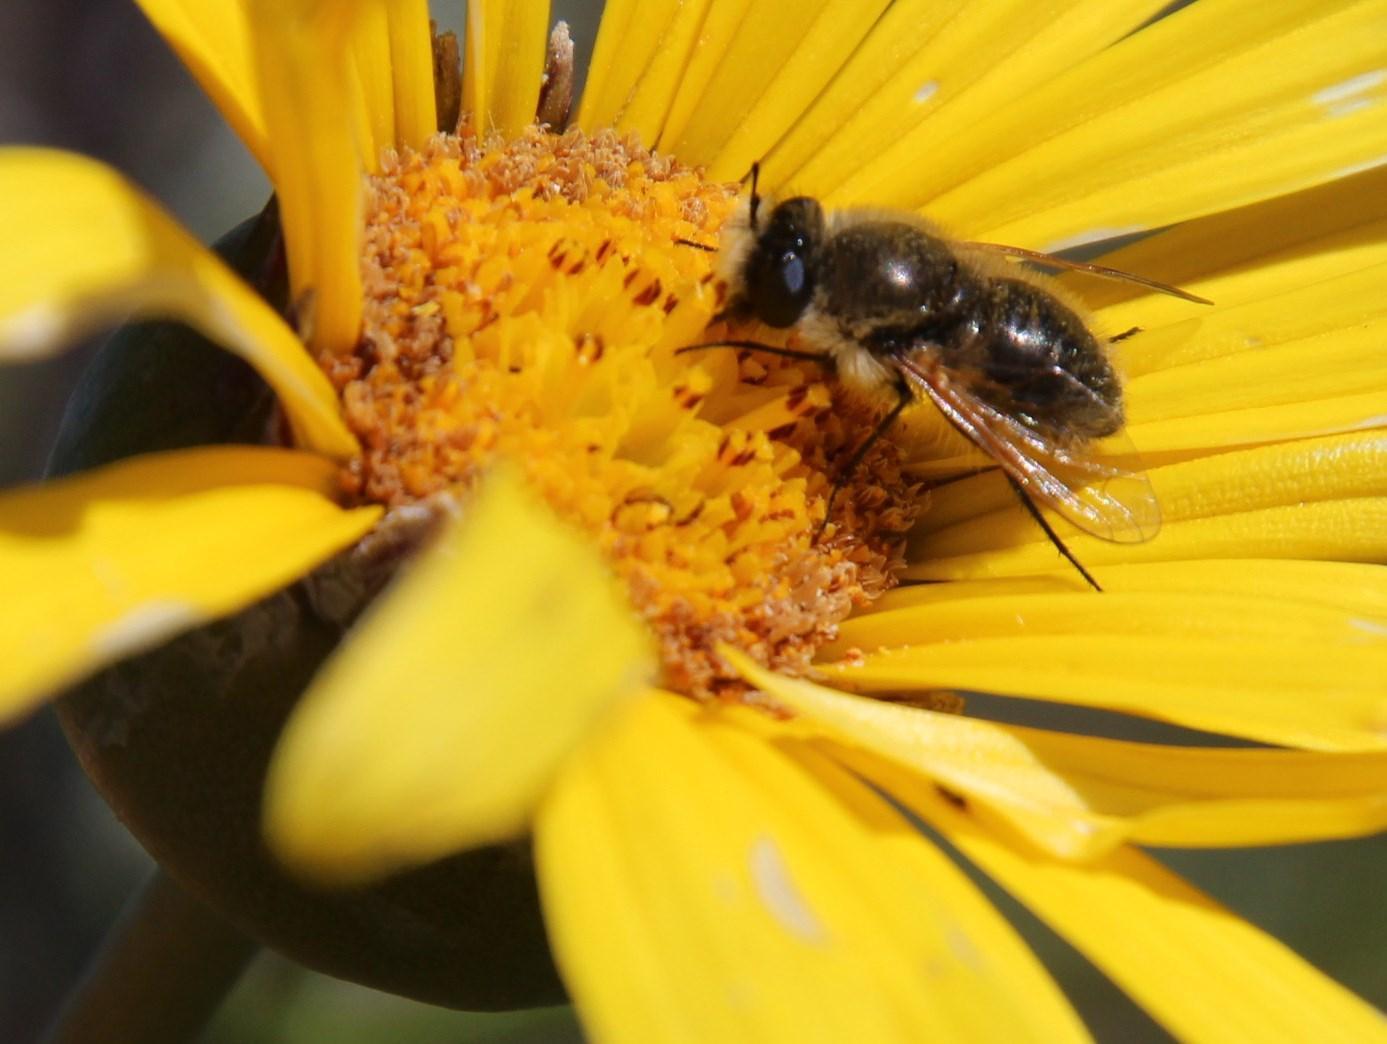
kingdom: Plantae
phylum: Tracheophyta
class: Magnoliopsida
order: Asterales
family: Asteraceae
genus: Euryops
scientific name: Euryops speciosissimus
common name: Clanwilliam daisy
